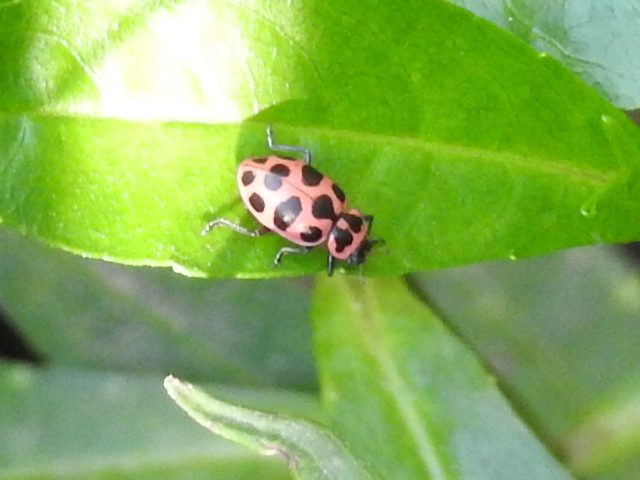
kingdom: Animalia
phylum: Arthropoda
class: Insecta
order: Coleoptera
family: Coccinellidae
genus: Coleomegilla
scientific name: Coleomegilla maculata
